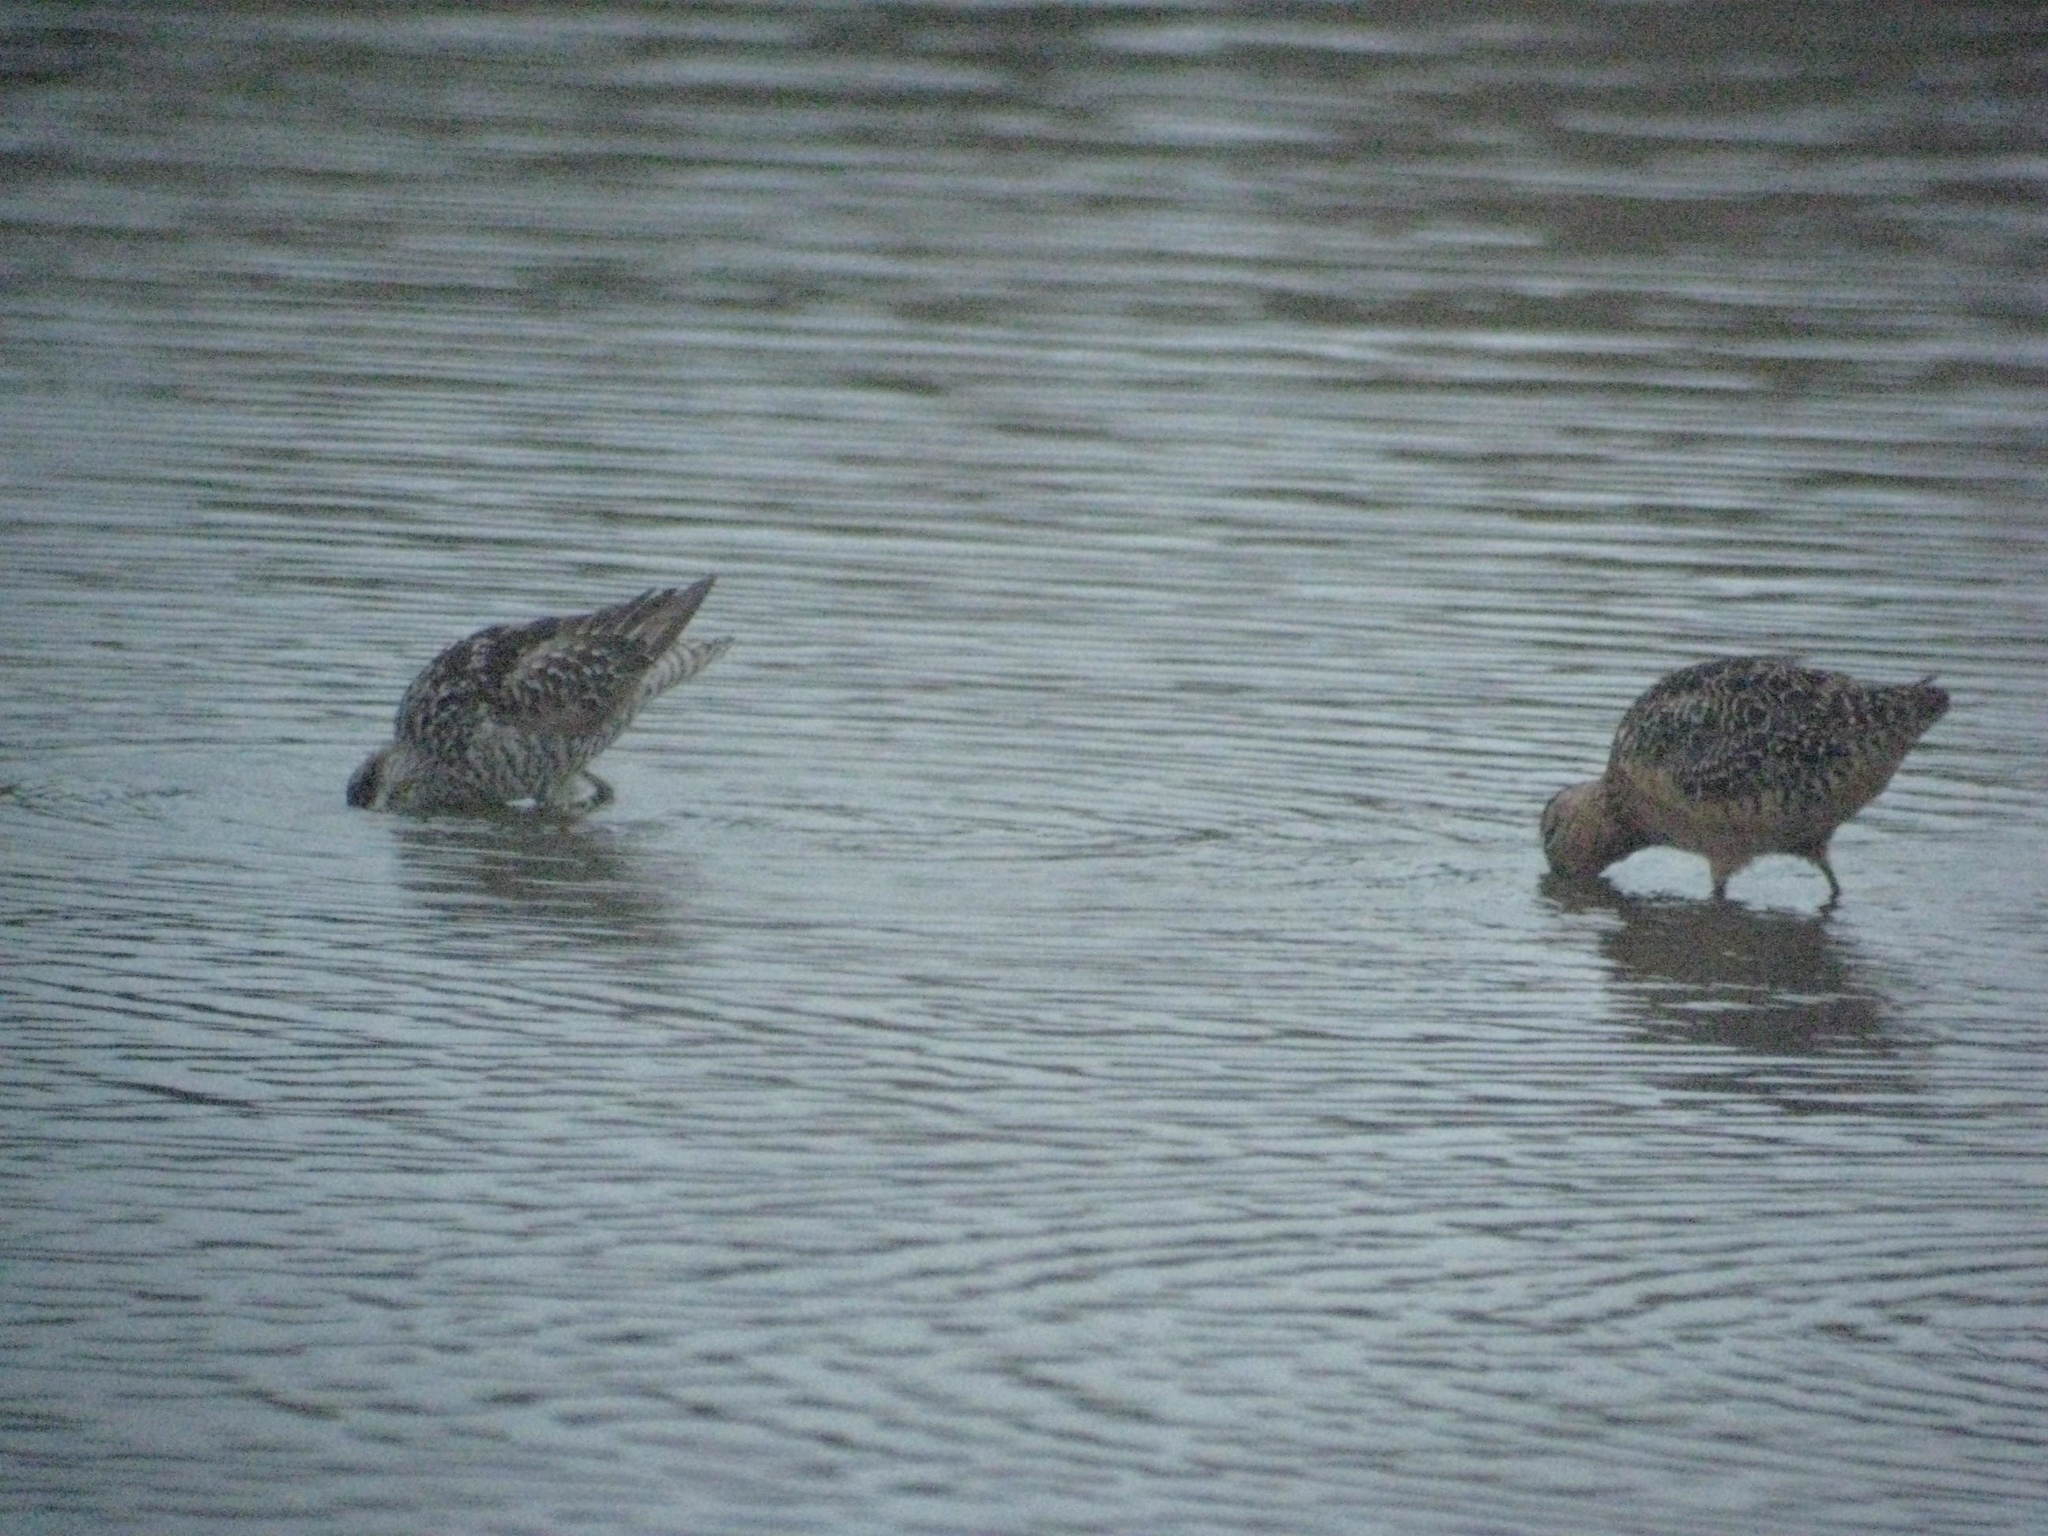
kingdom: Animalia
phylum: Chordata
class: Aves
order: Charadriiformes
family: Scolopacidae
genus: Calidris
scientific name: Calidris himantopus
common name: Stilt sandpiper
